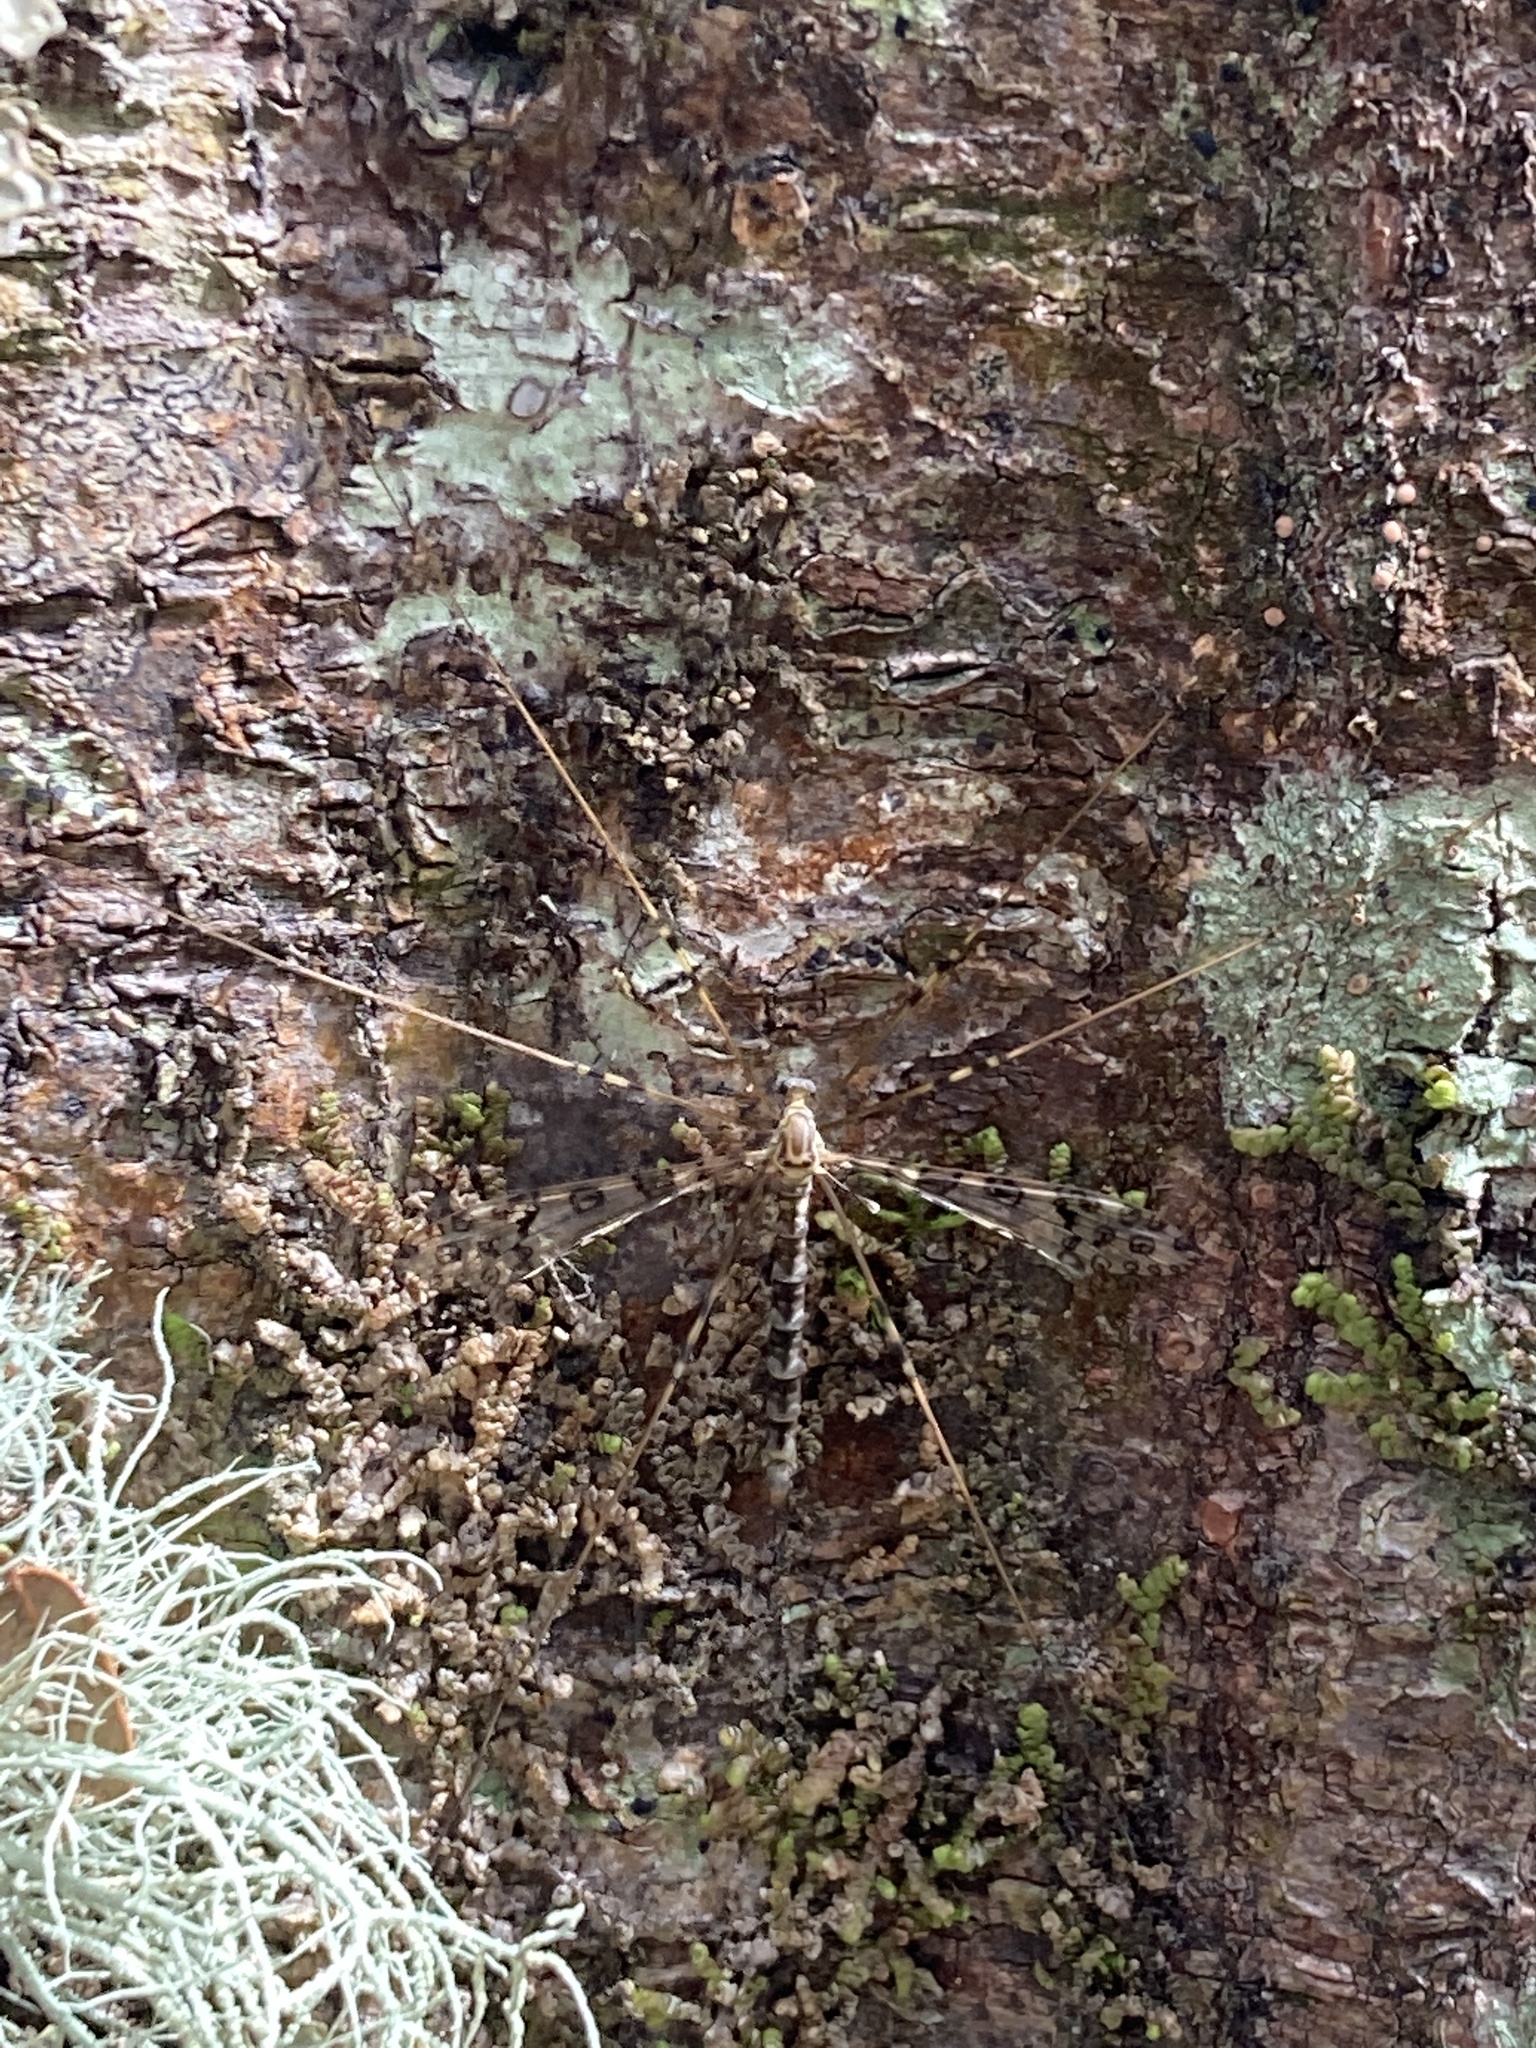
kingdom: Animalia
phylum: Arthropoda
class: Insecta
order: Diptera
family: Limoniidae
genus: Austrolimnophila
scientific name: Austrolimnophila argus
